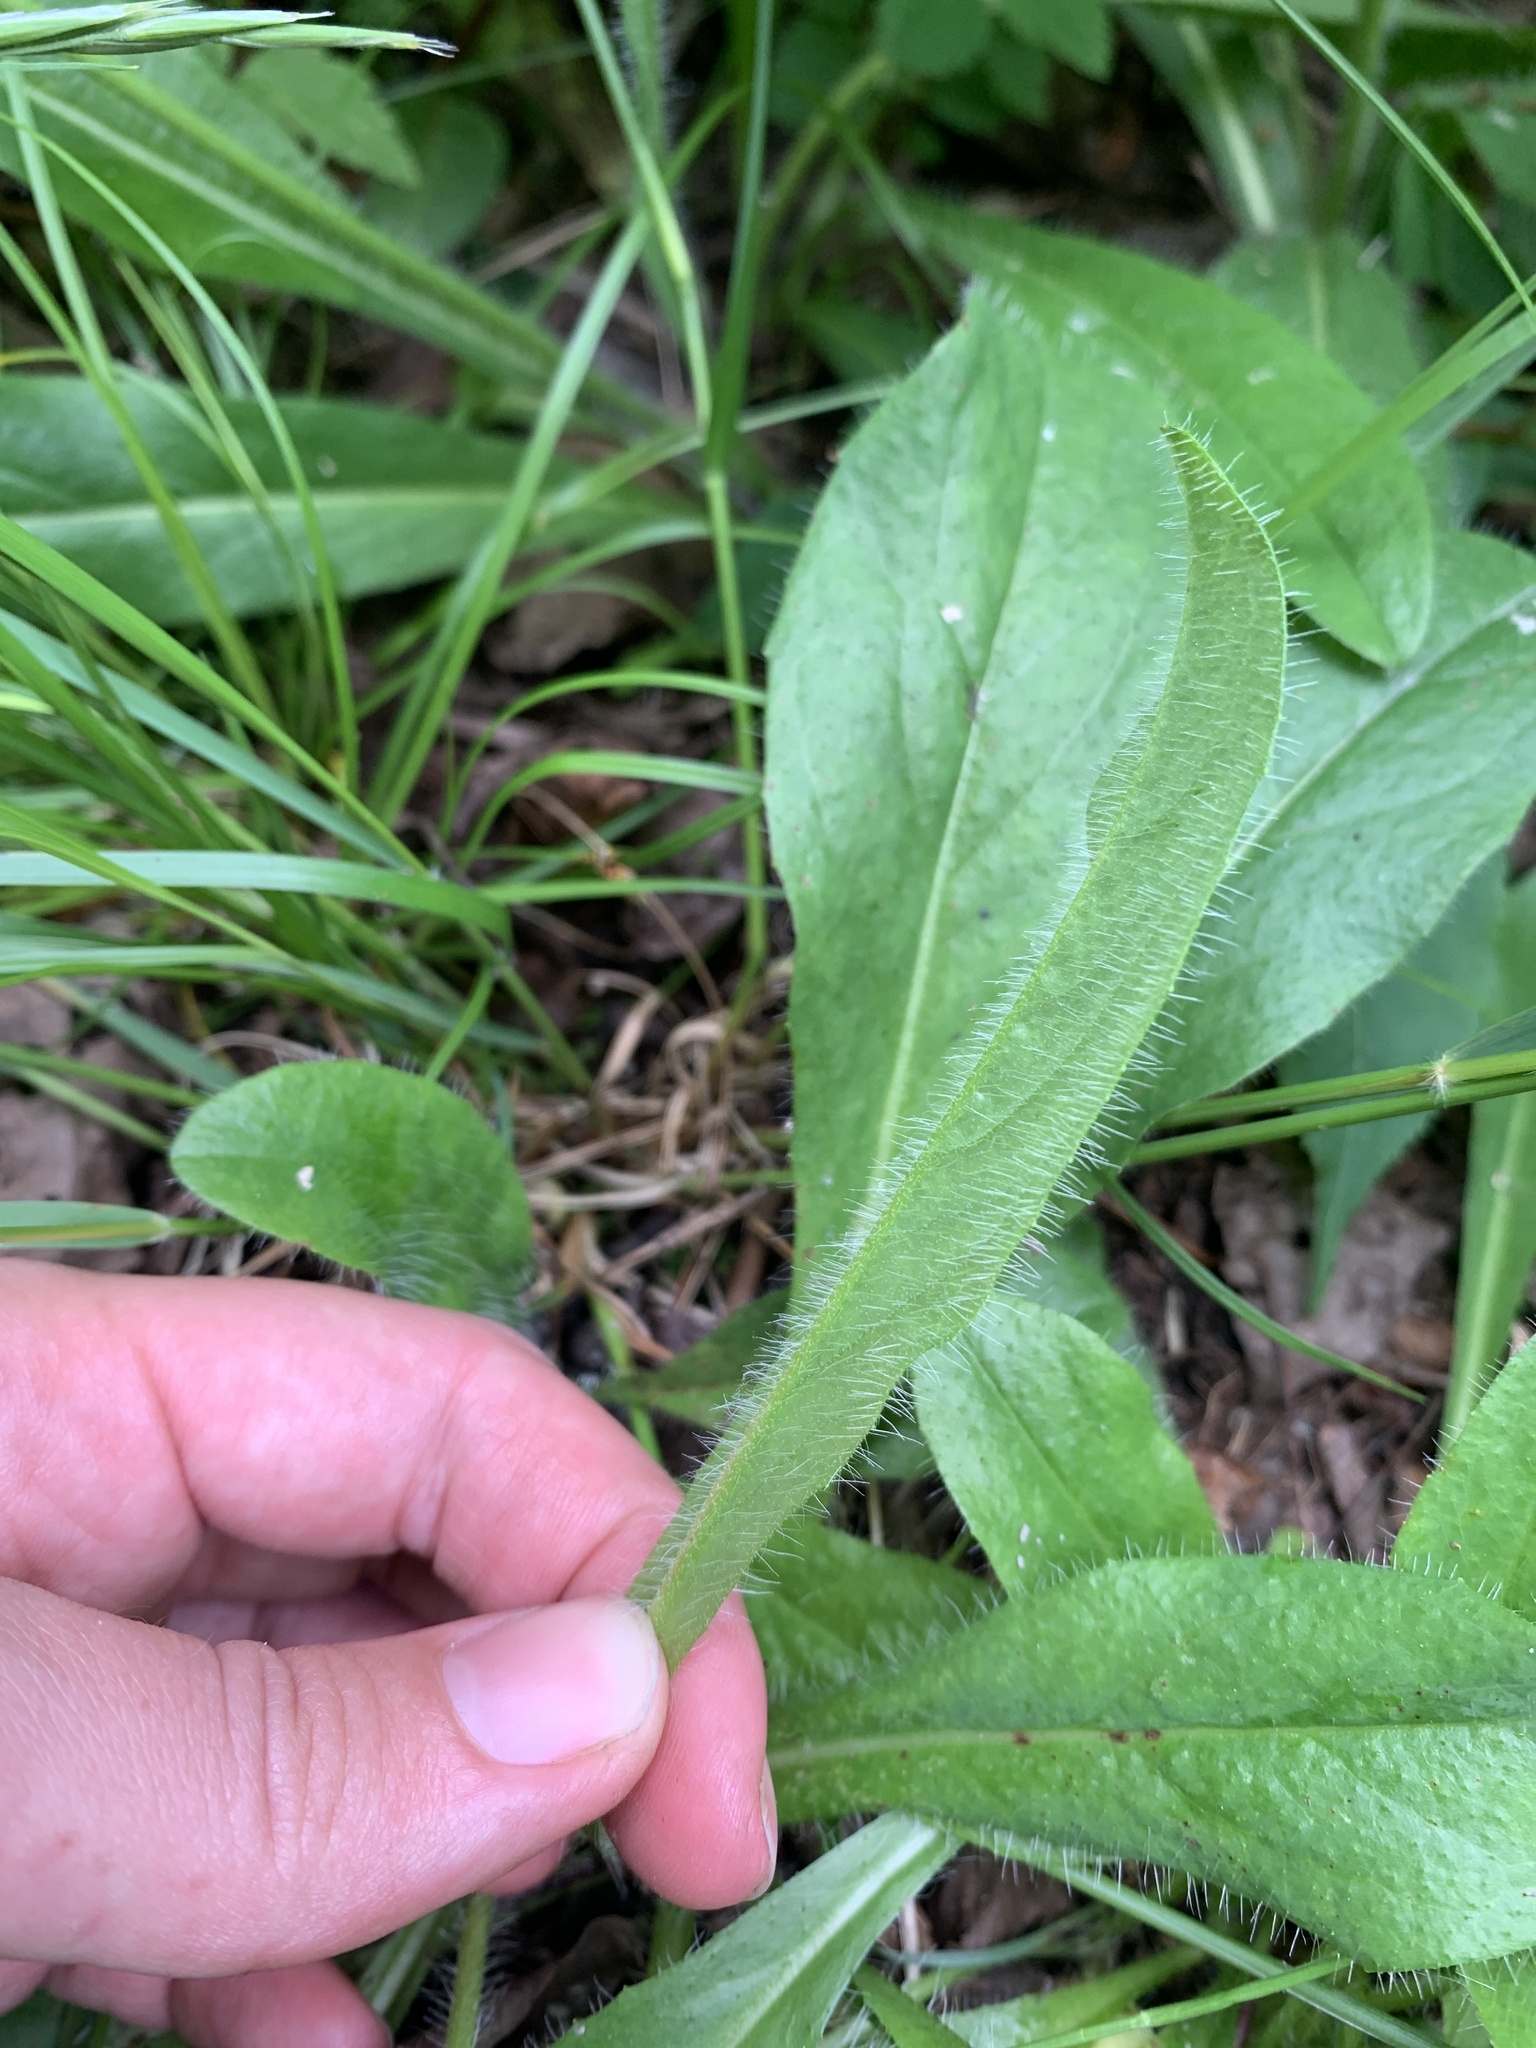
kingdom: Plantae
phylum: Tracheophyta
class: Magnoliopsida
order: Asterales
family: Asteraceae
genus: Pilosella
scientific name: Pilosella aurantiaca
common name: Fox-and-cubs
